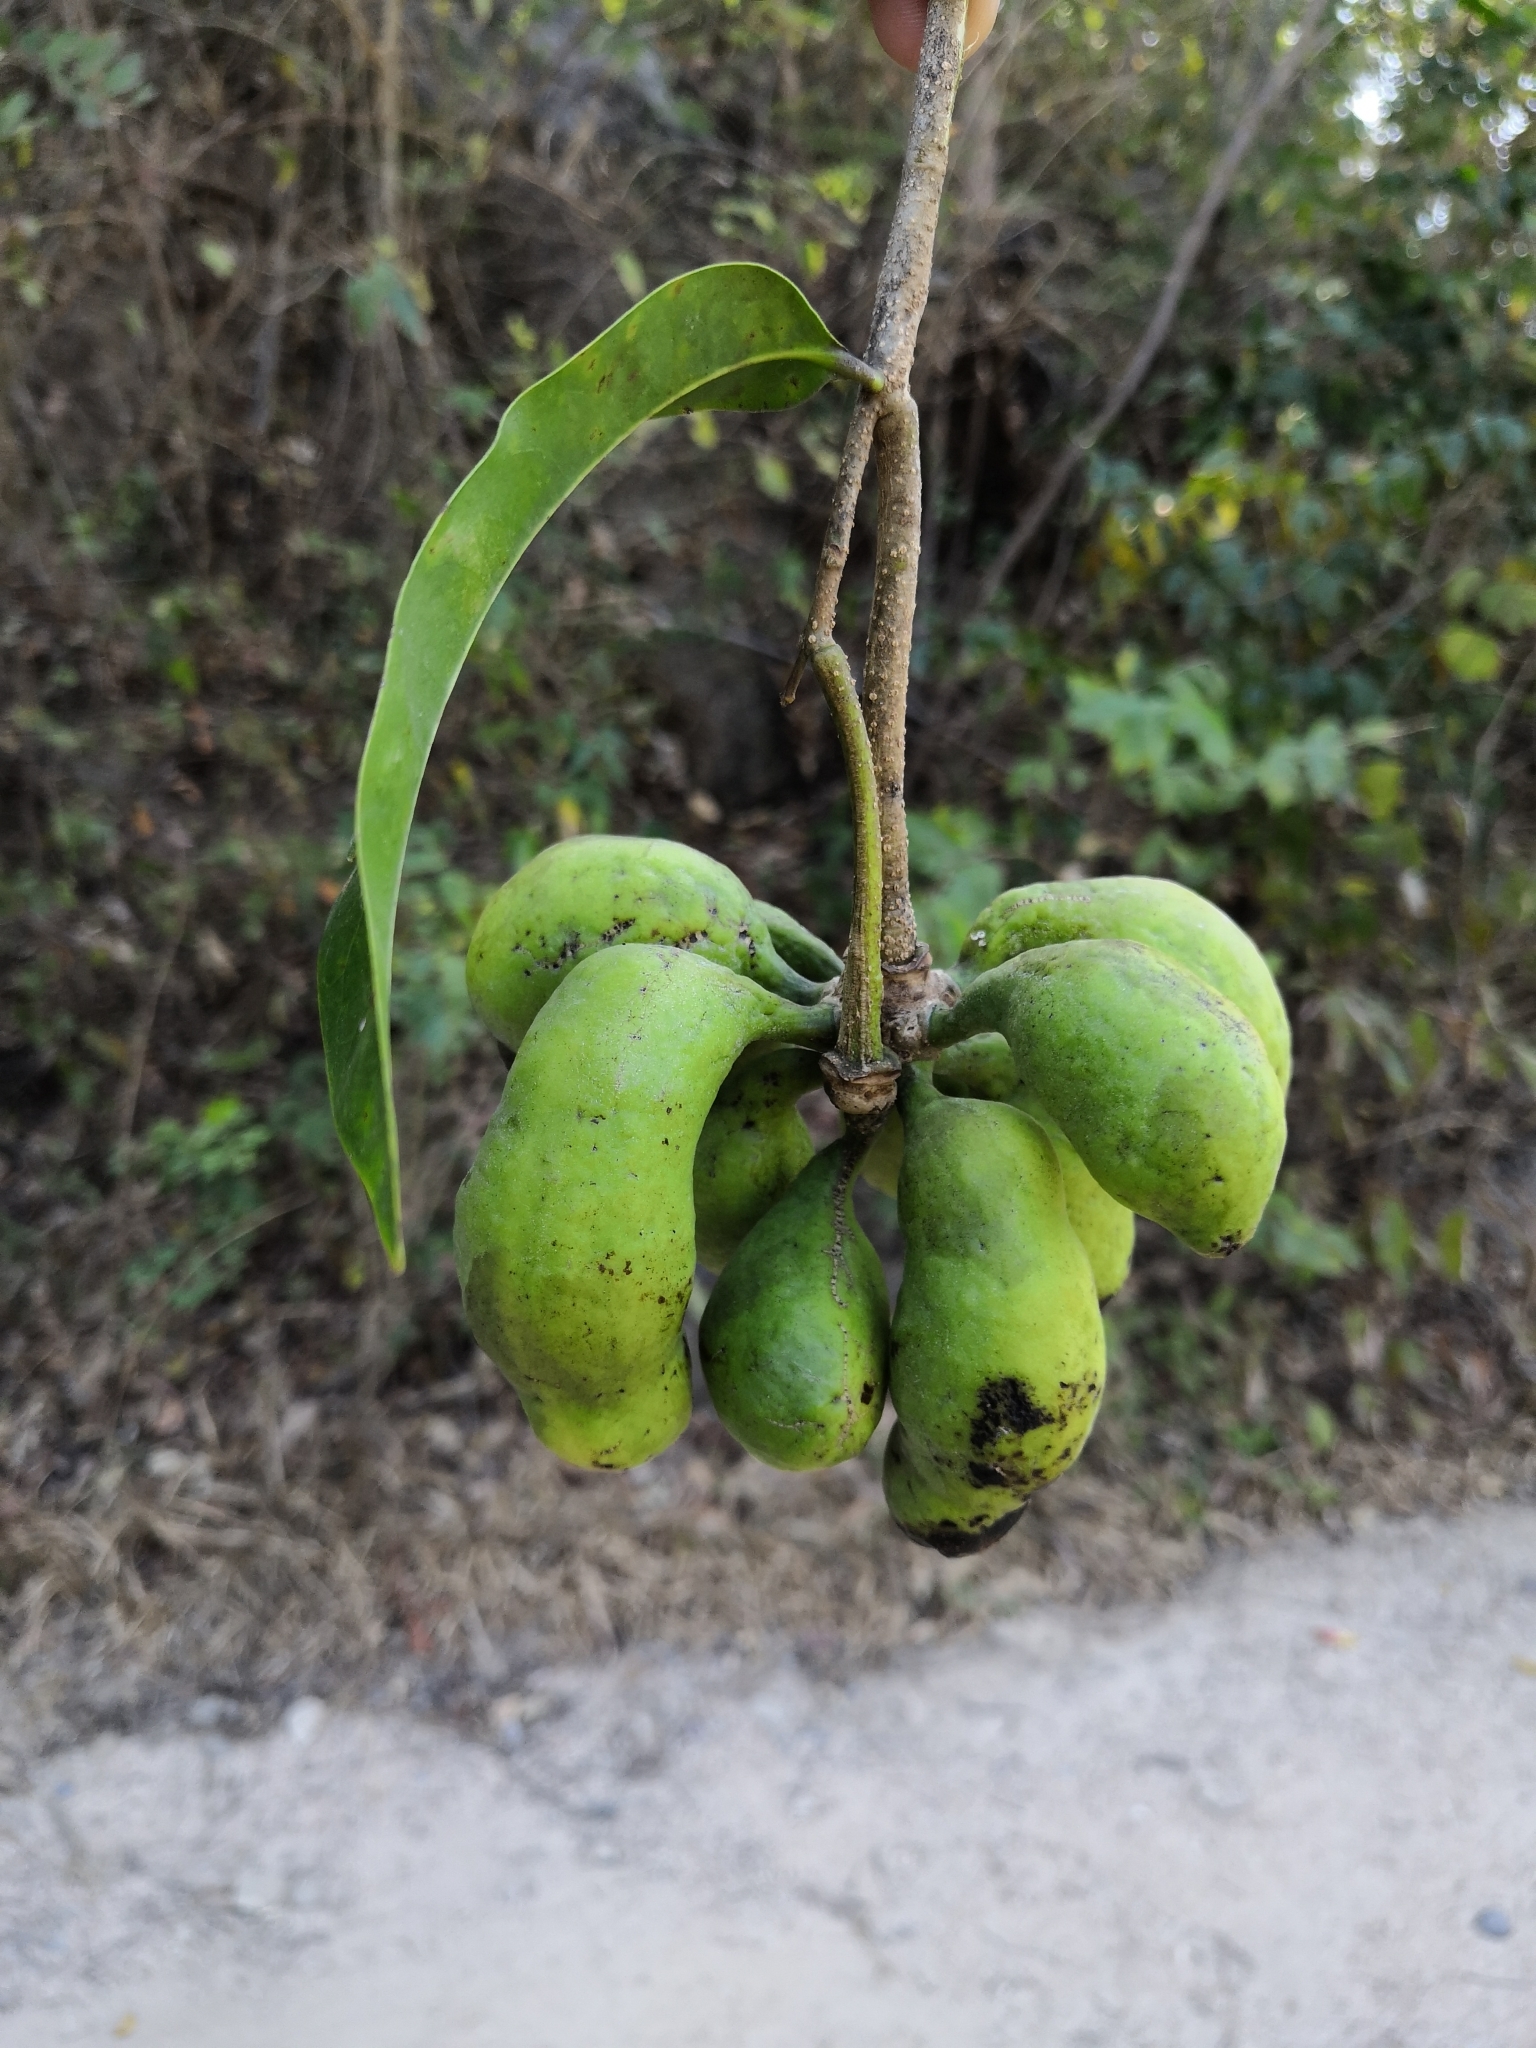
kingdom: Plantae
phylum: Tracheophyta
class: Magnoliopsida
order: Magnoliales
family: Annonaceae
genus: Cymbopetalum
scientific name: Cymbopetalum hintonii
